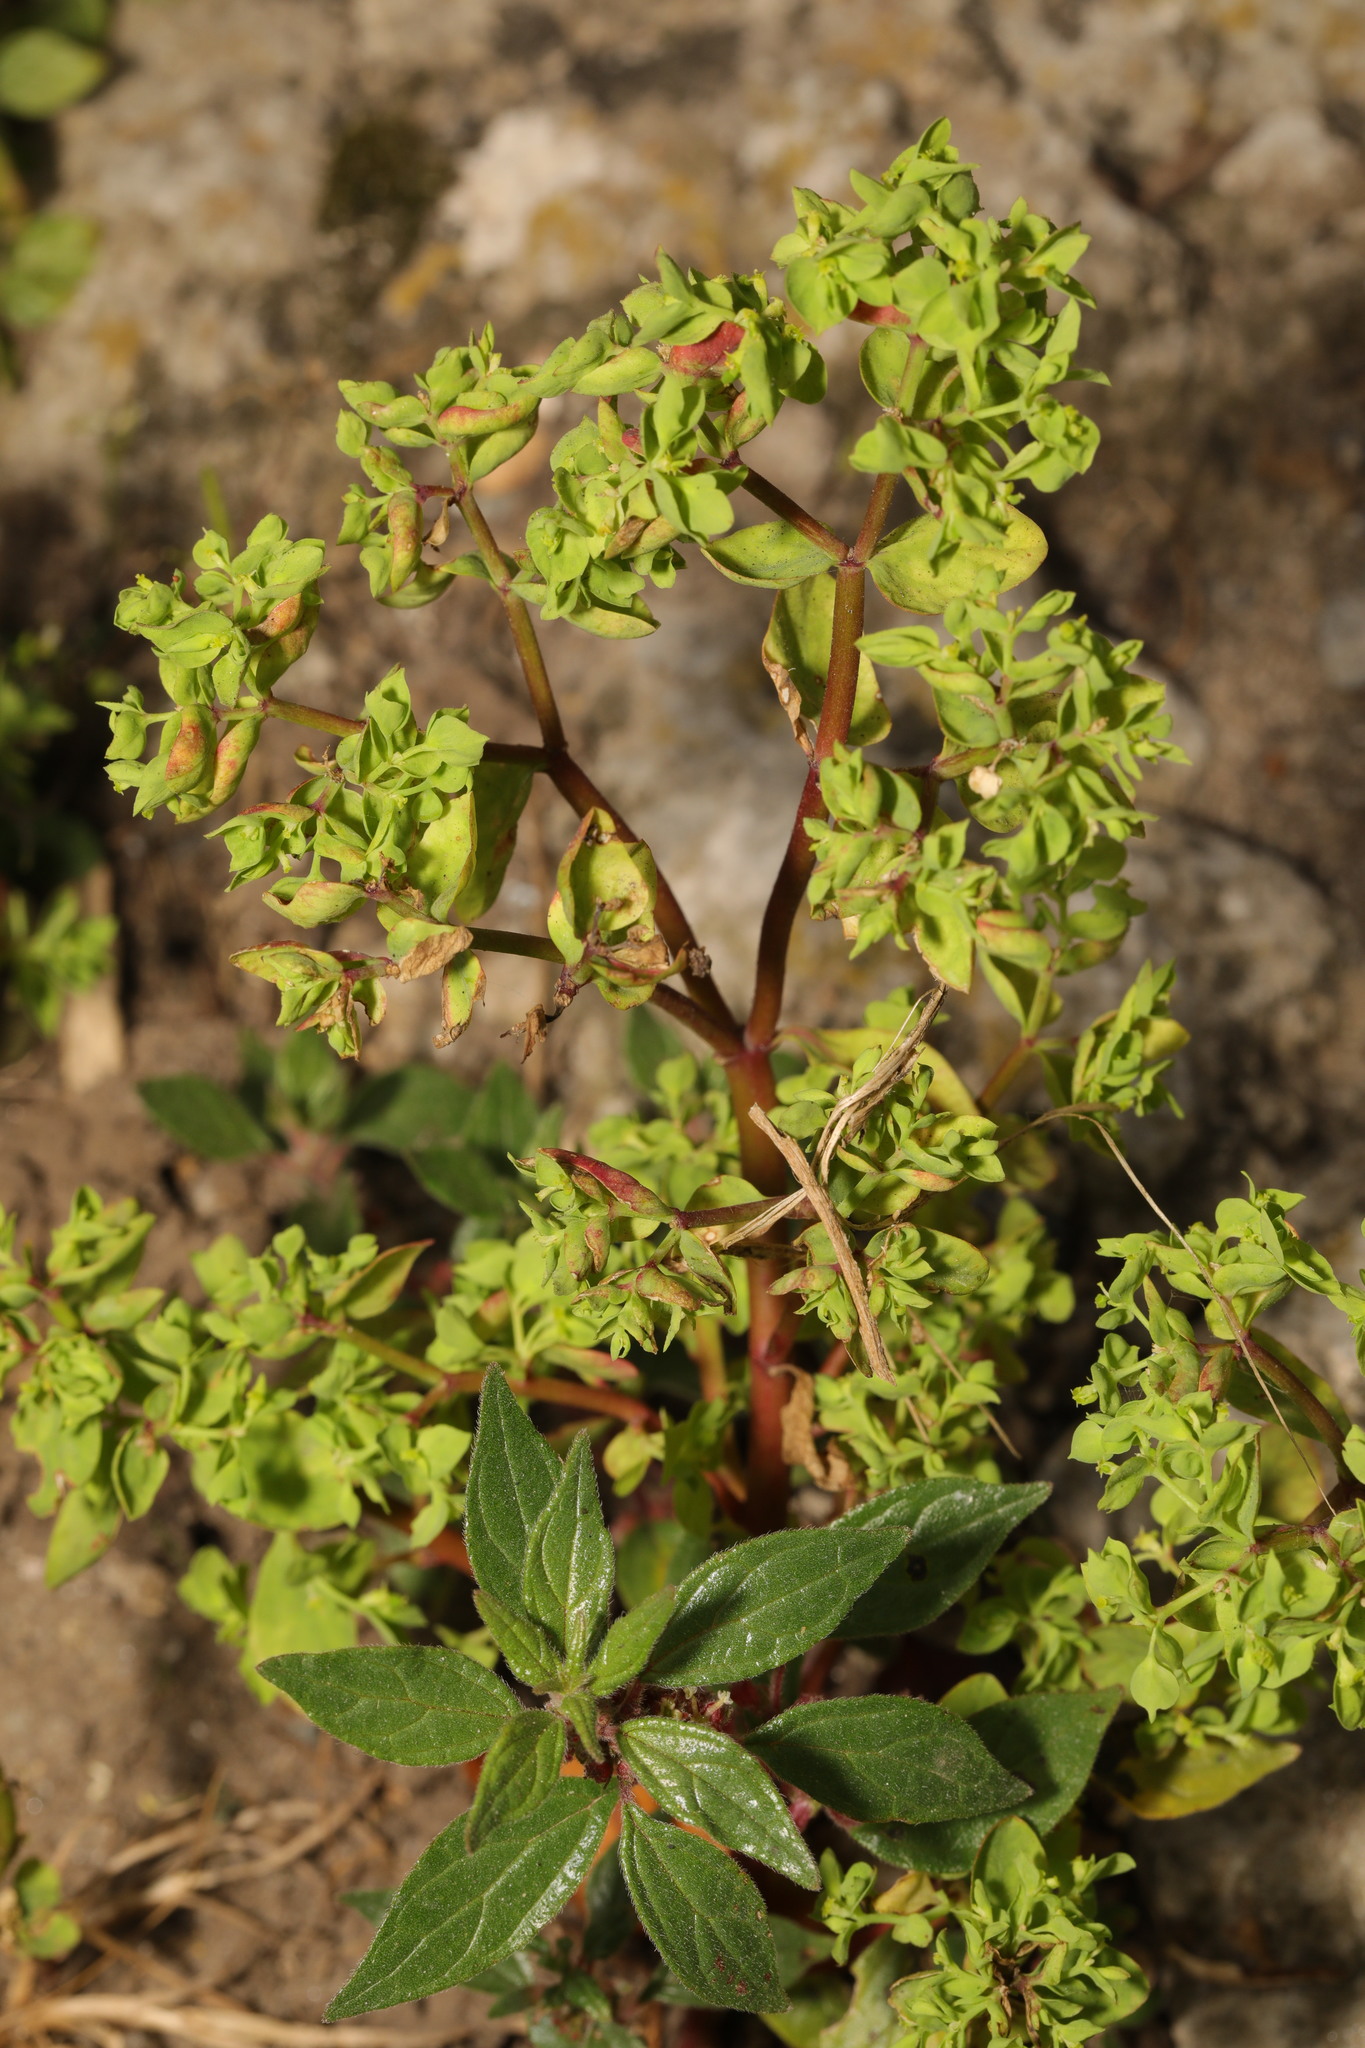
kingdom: Plantae
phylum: Tracheophyta
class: Magnoliopsida
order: Malpighiales
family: Euphorbiaceae
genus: Euphorbia
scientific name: Euphorbia peplus
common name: Petty spurge
